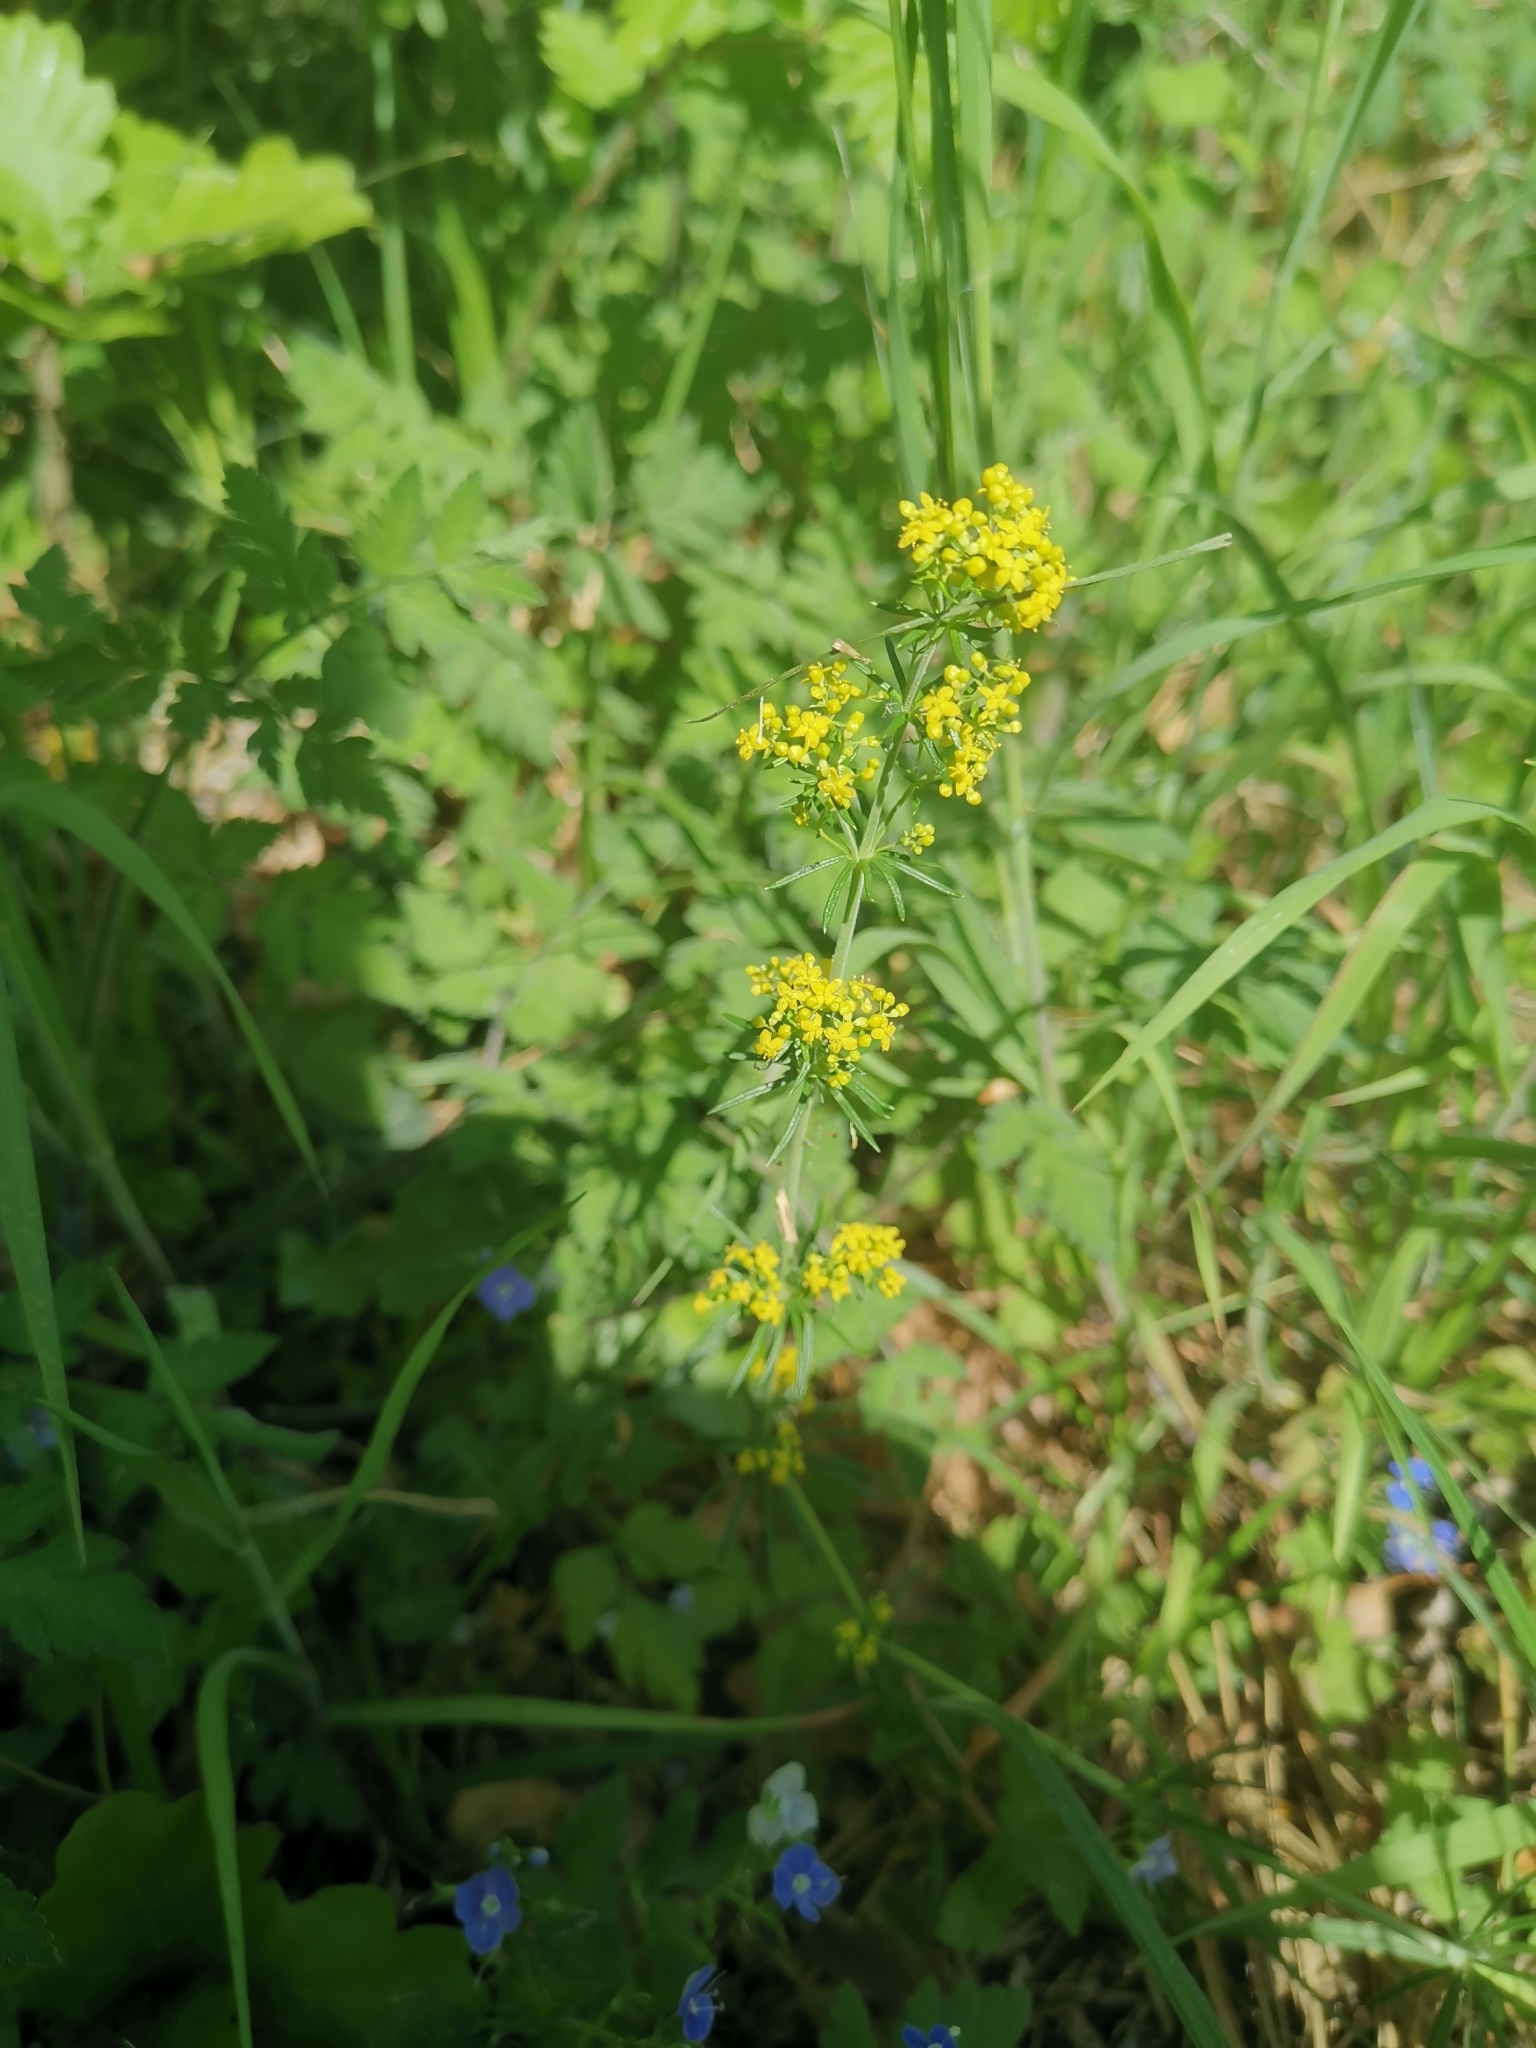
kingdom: Plantae
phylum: Tracheophyta
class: Magnoliopsida
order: Gentianales
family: Rubiaceae
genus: Galium
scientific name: Galium verum
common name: Lady's bedstraw
